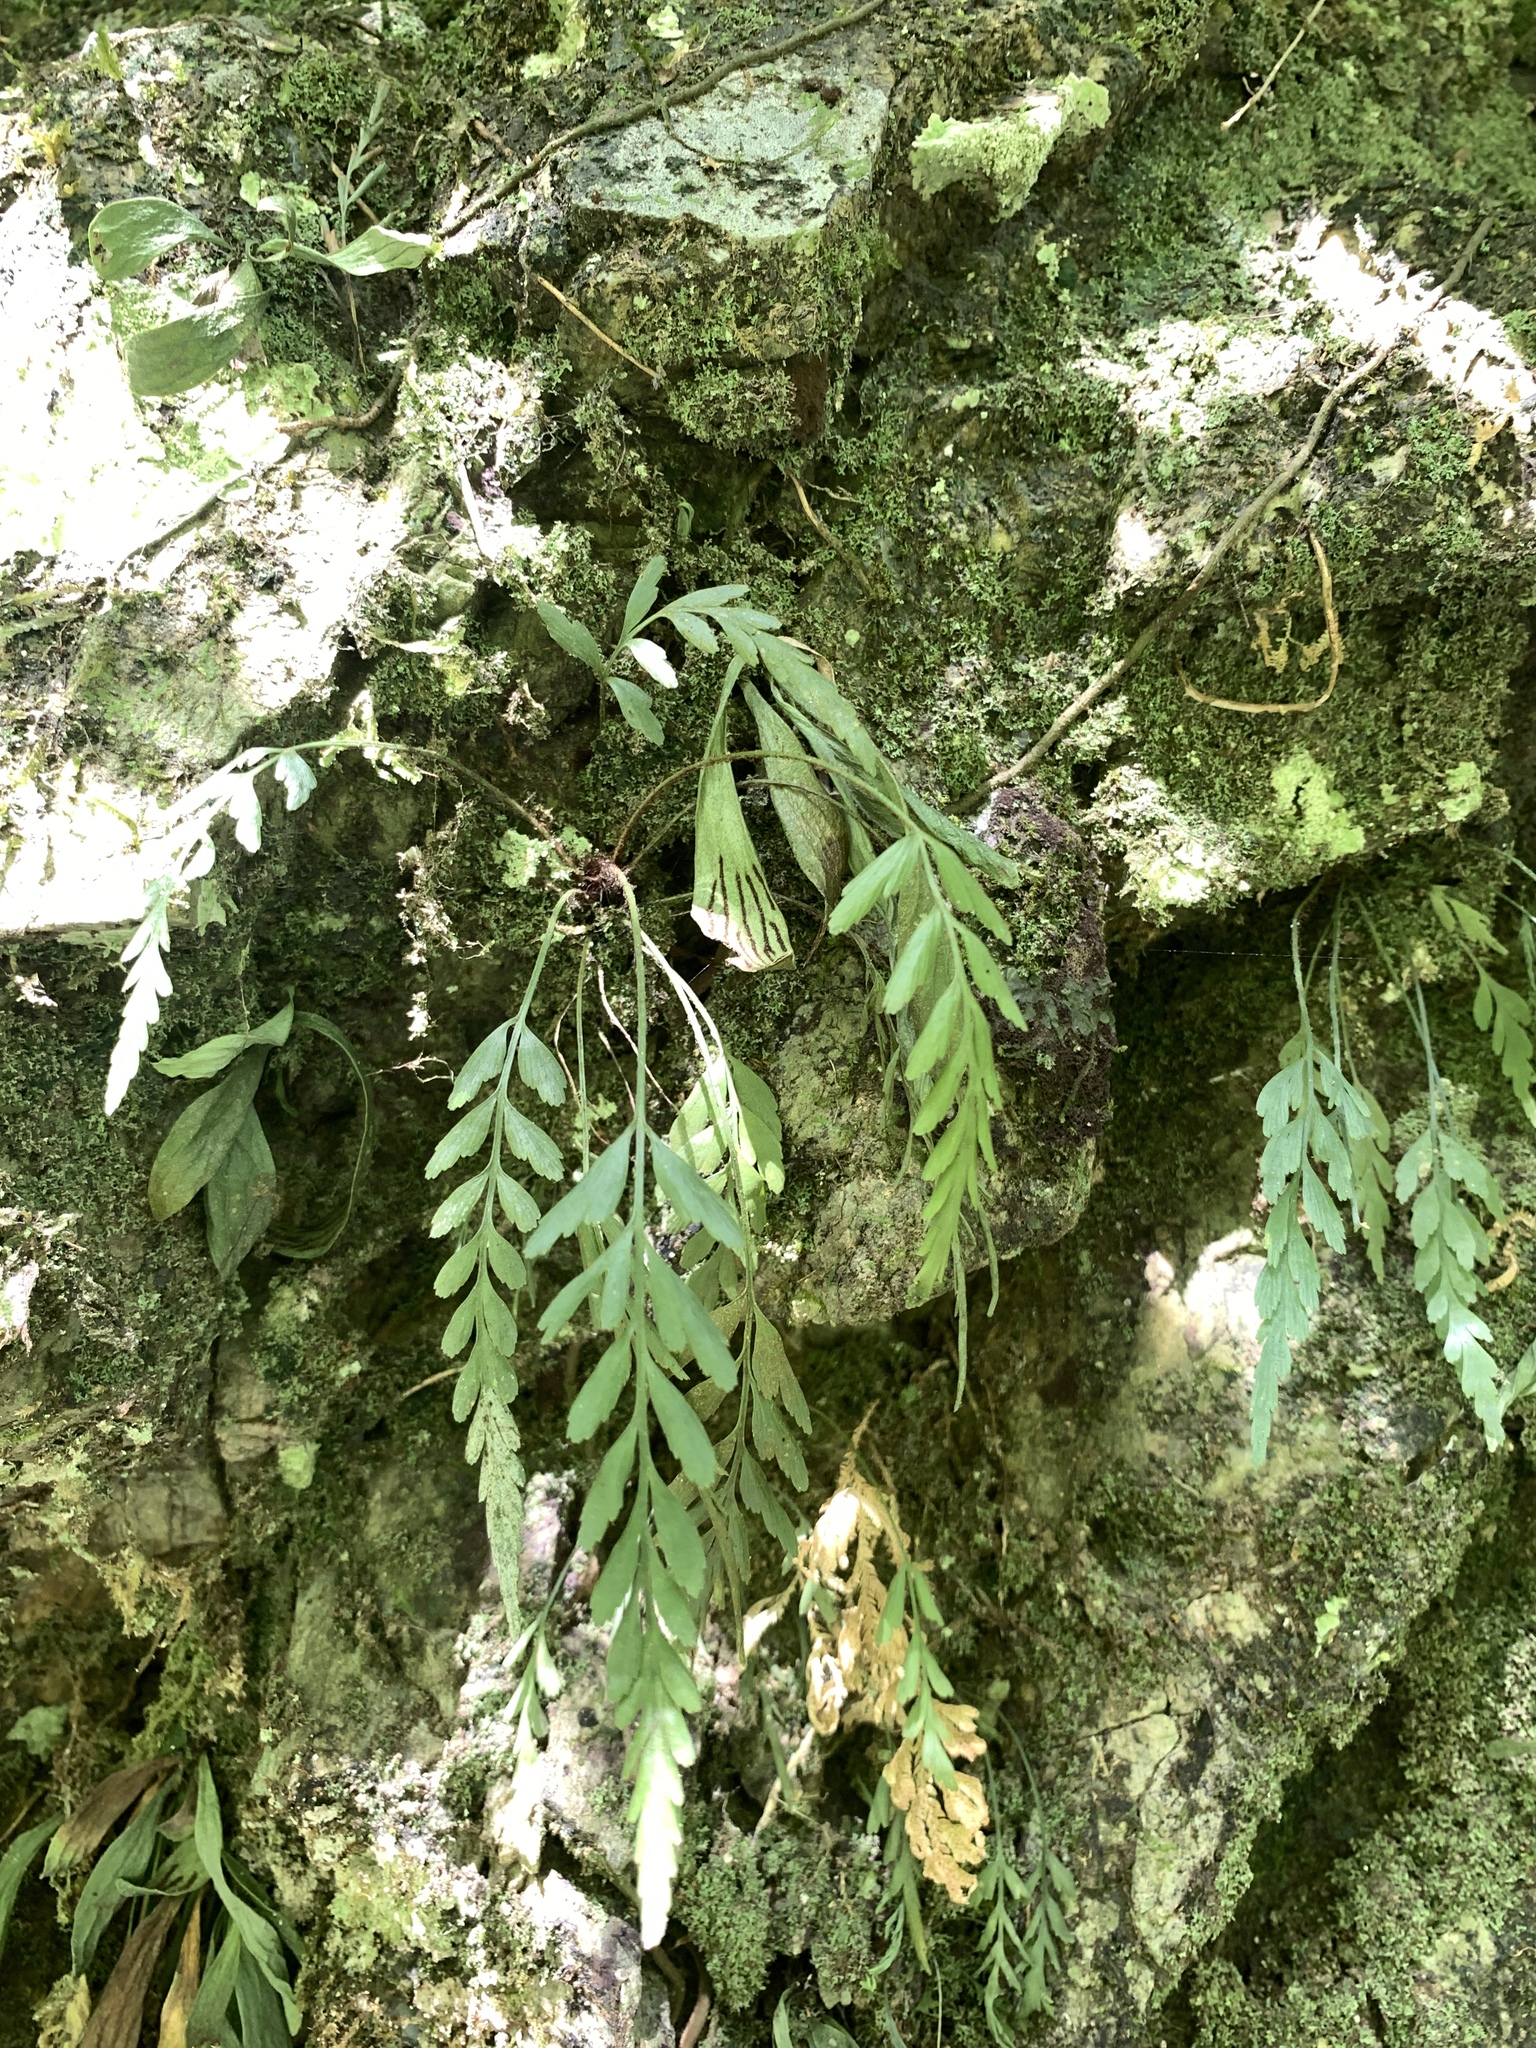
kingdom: Plantae
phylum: Tracheophyta
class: Polypodiopsida
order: Polypodiales
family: Aspleniaceae
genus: Asplenium
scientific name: Asplenium oldhamii
